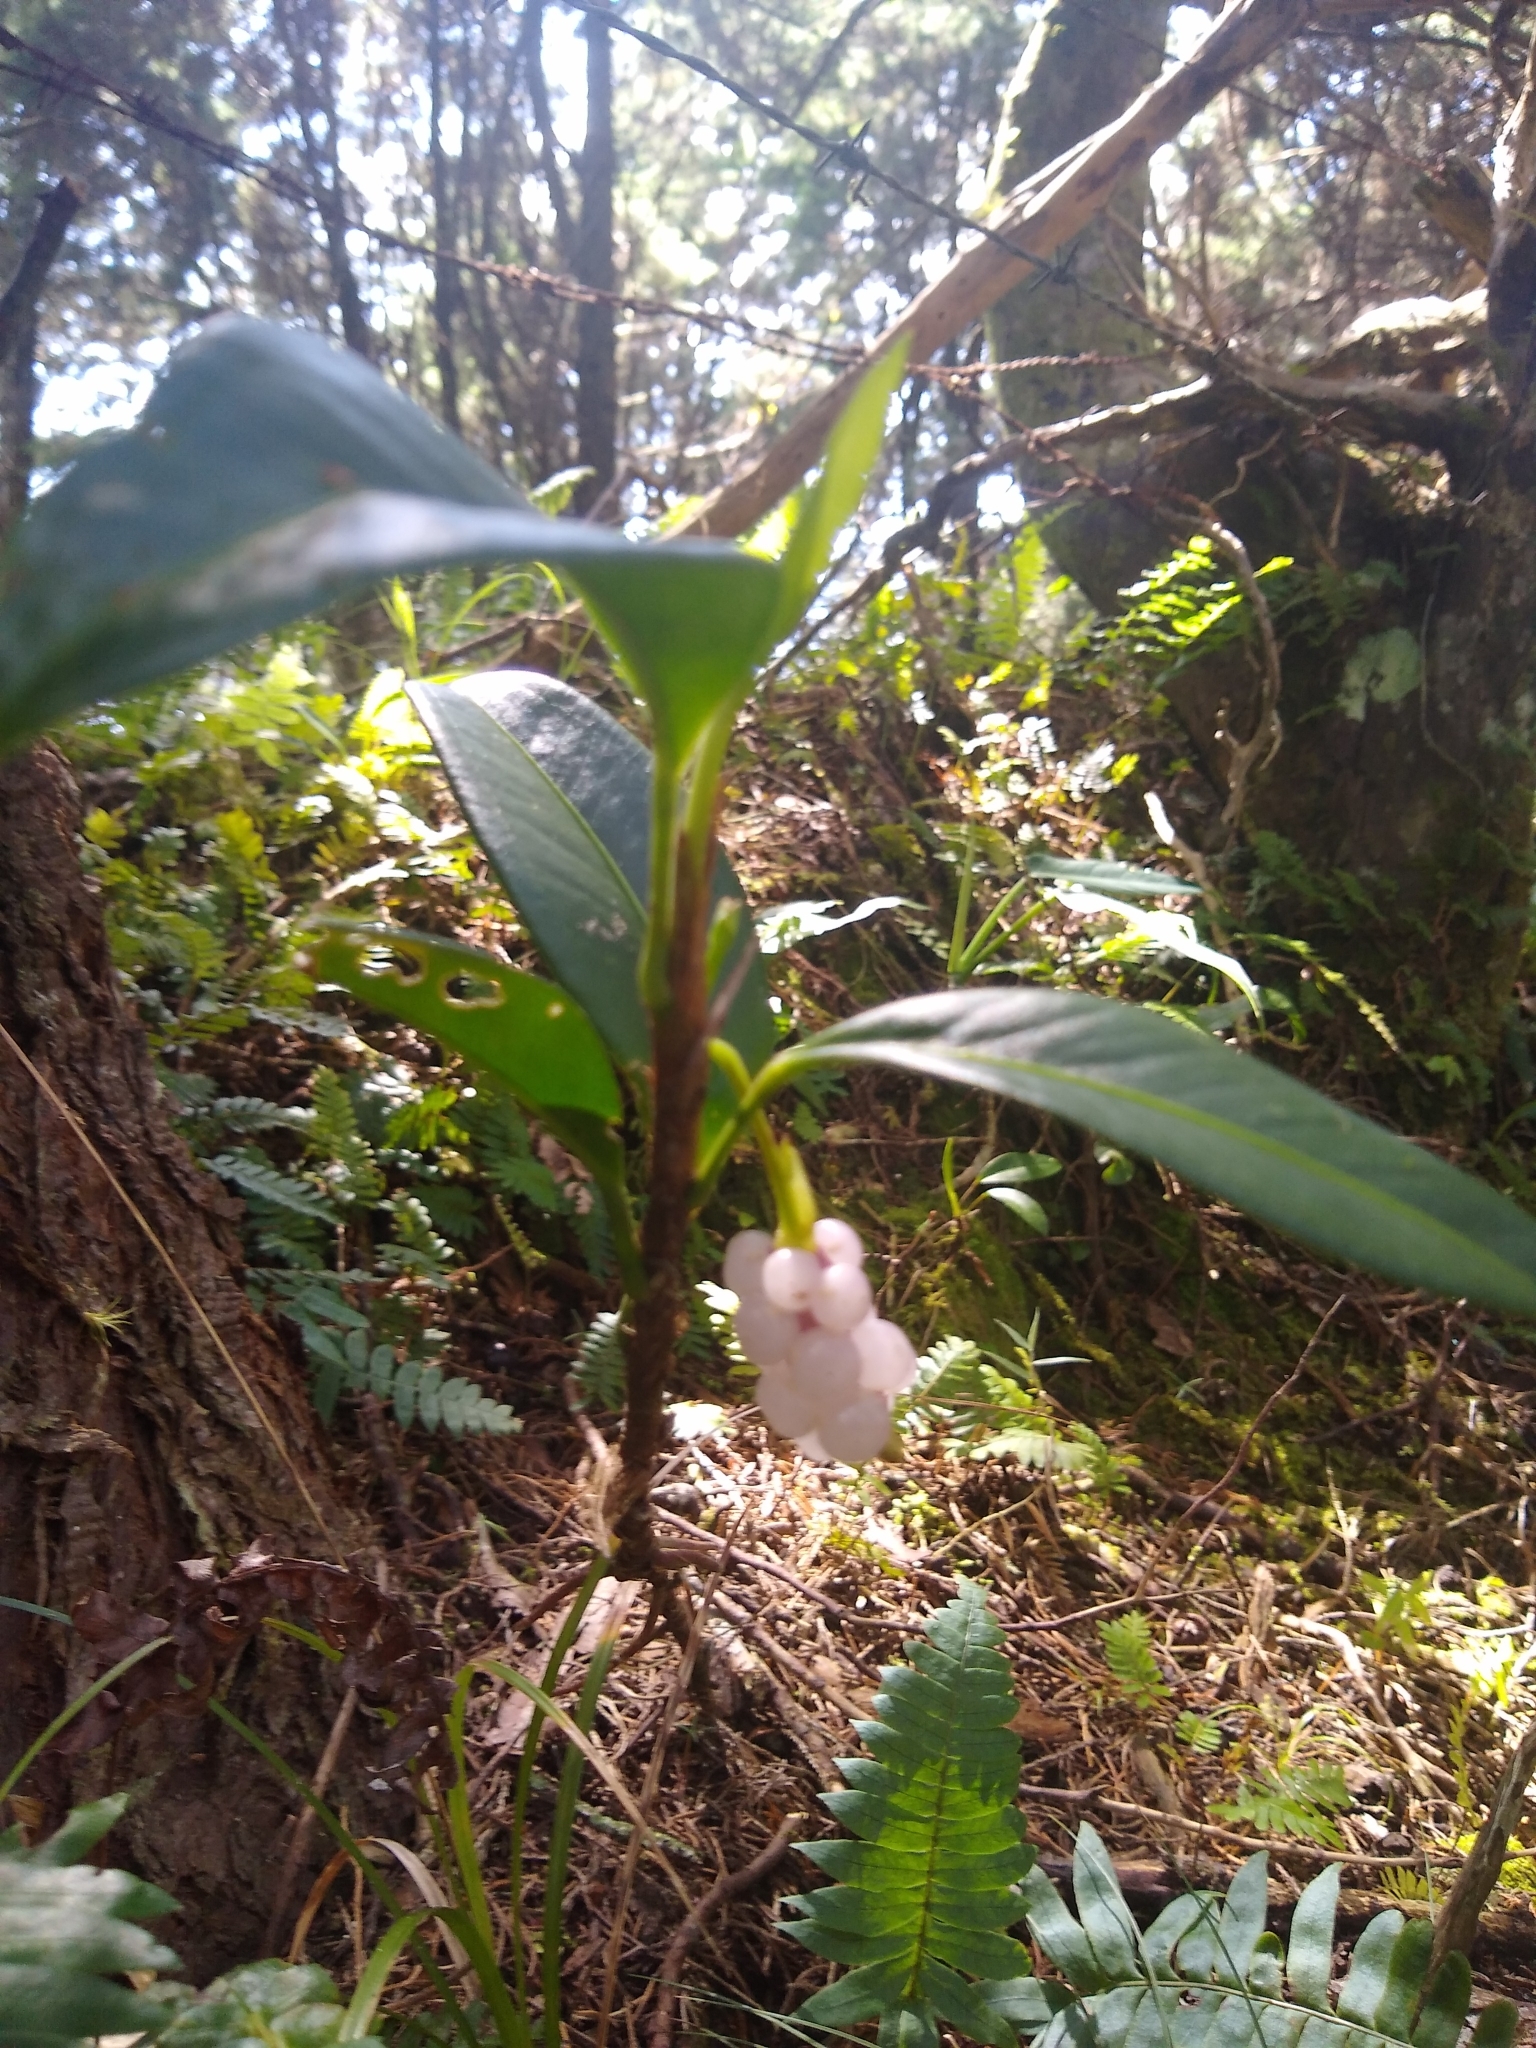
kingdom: Plantae
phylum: Tracheophyta
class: Liliopsida
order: Alismatales
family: Araceae
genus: Anthurium
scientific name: Anthurium scandens
